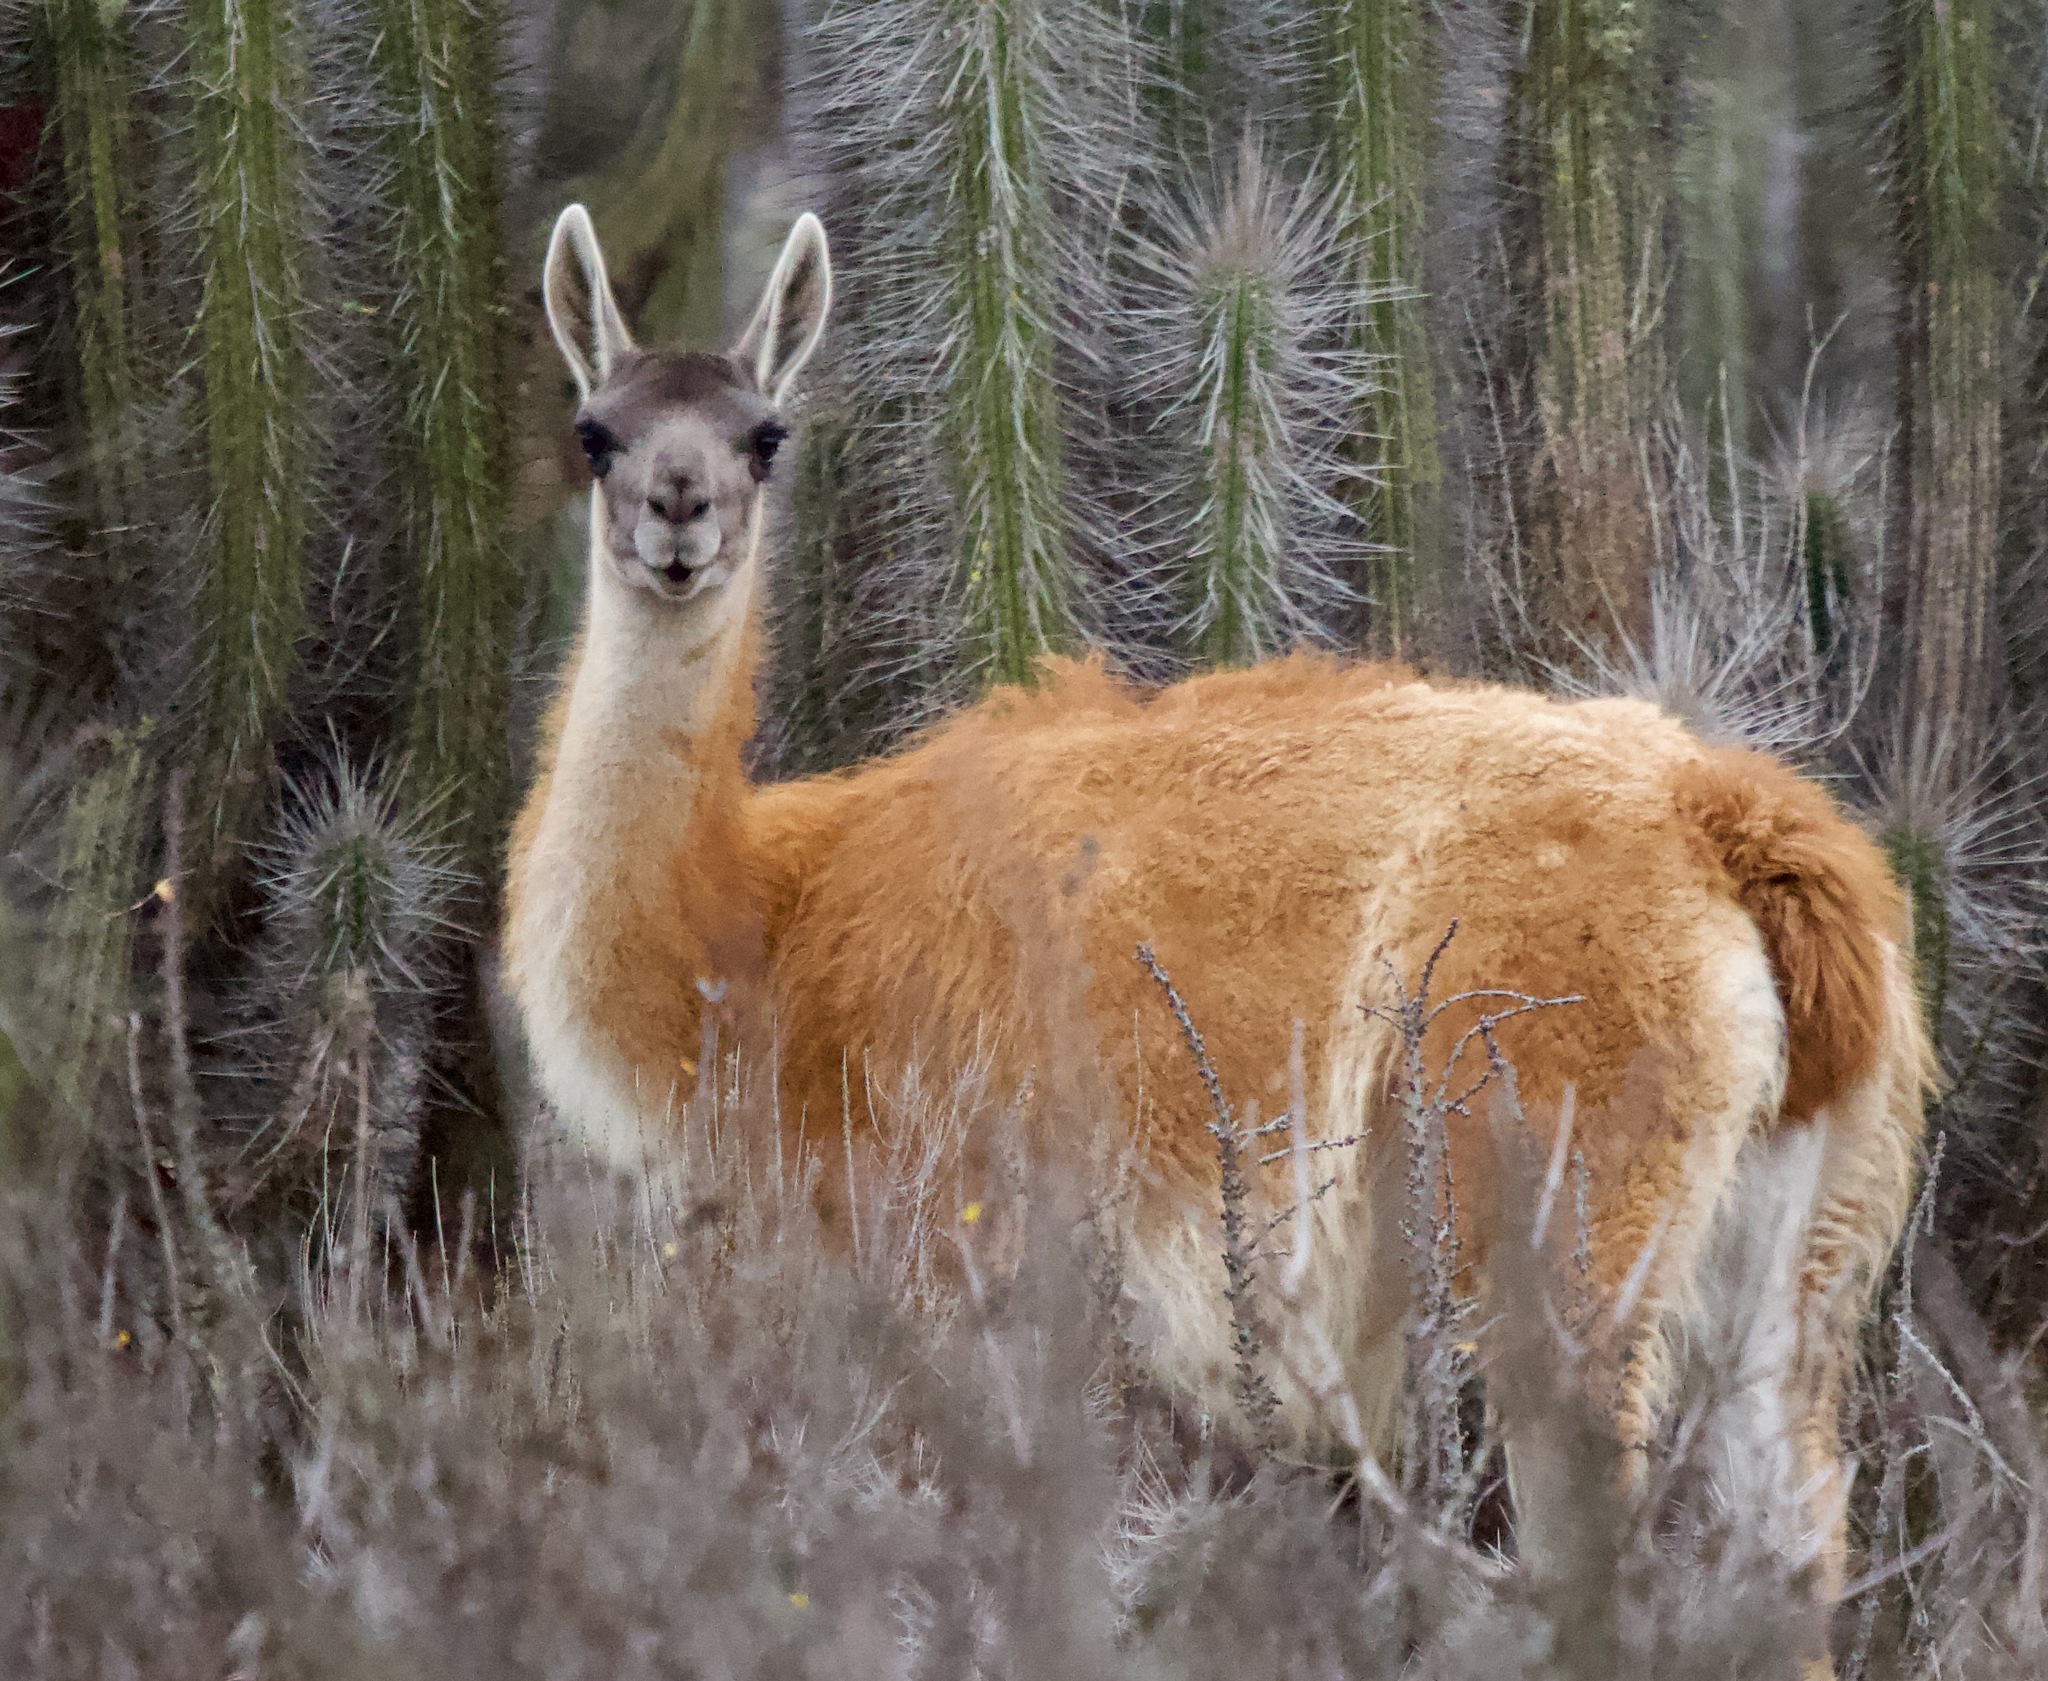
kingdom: Animalia
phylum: Chordata
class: Mammalia
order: Artiodactyla
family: Camelidae
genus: Lama
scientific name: Lama glama
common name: Llama
